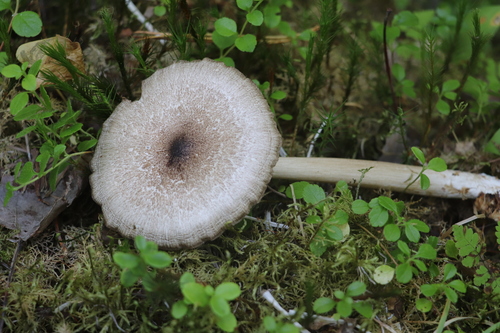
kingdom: Fungi
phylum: Basidiomycota
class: Agaricomycetes
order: Agaricales
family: Tricholomataceae
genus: Megacollybia
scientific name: Megacollybia platyphylla
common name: Whitelaced shank
